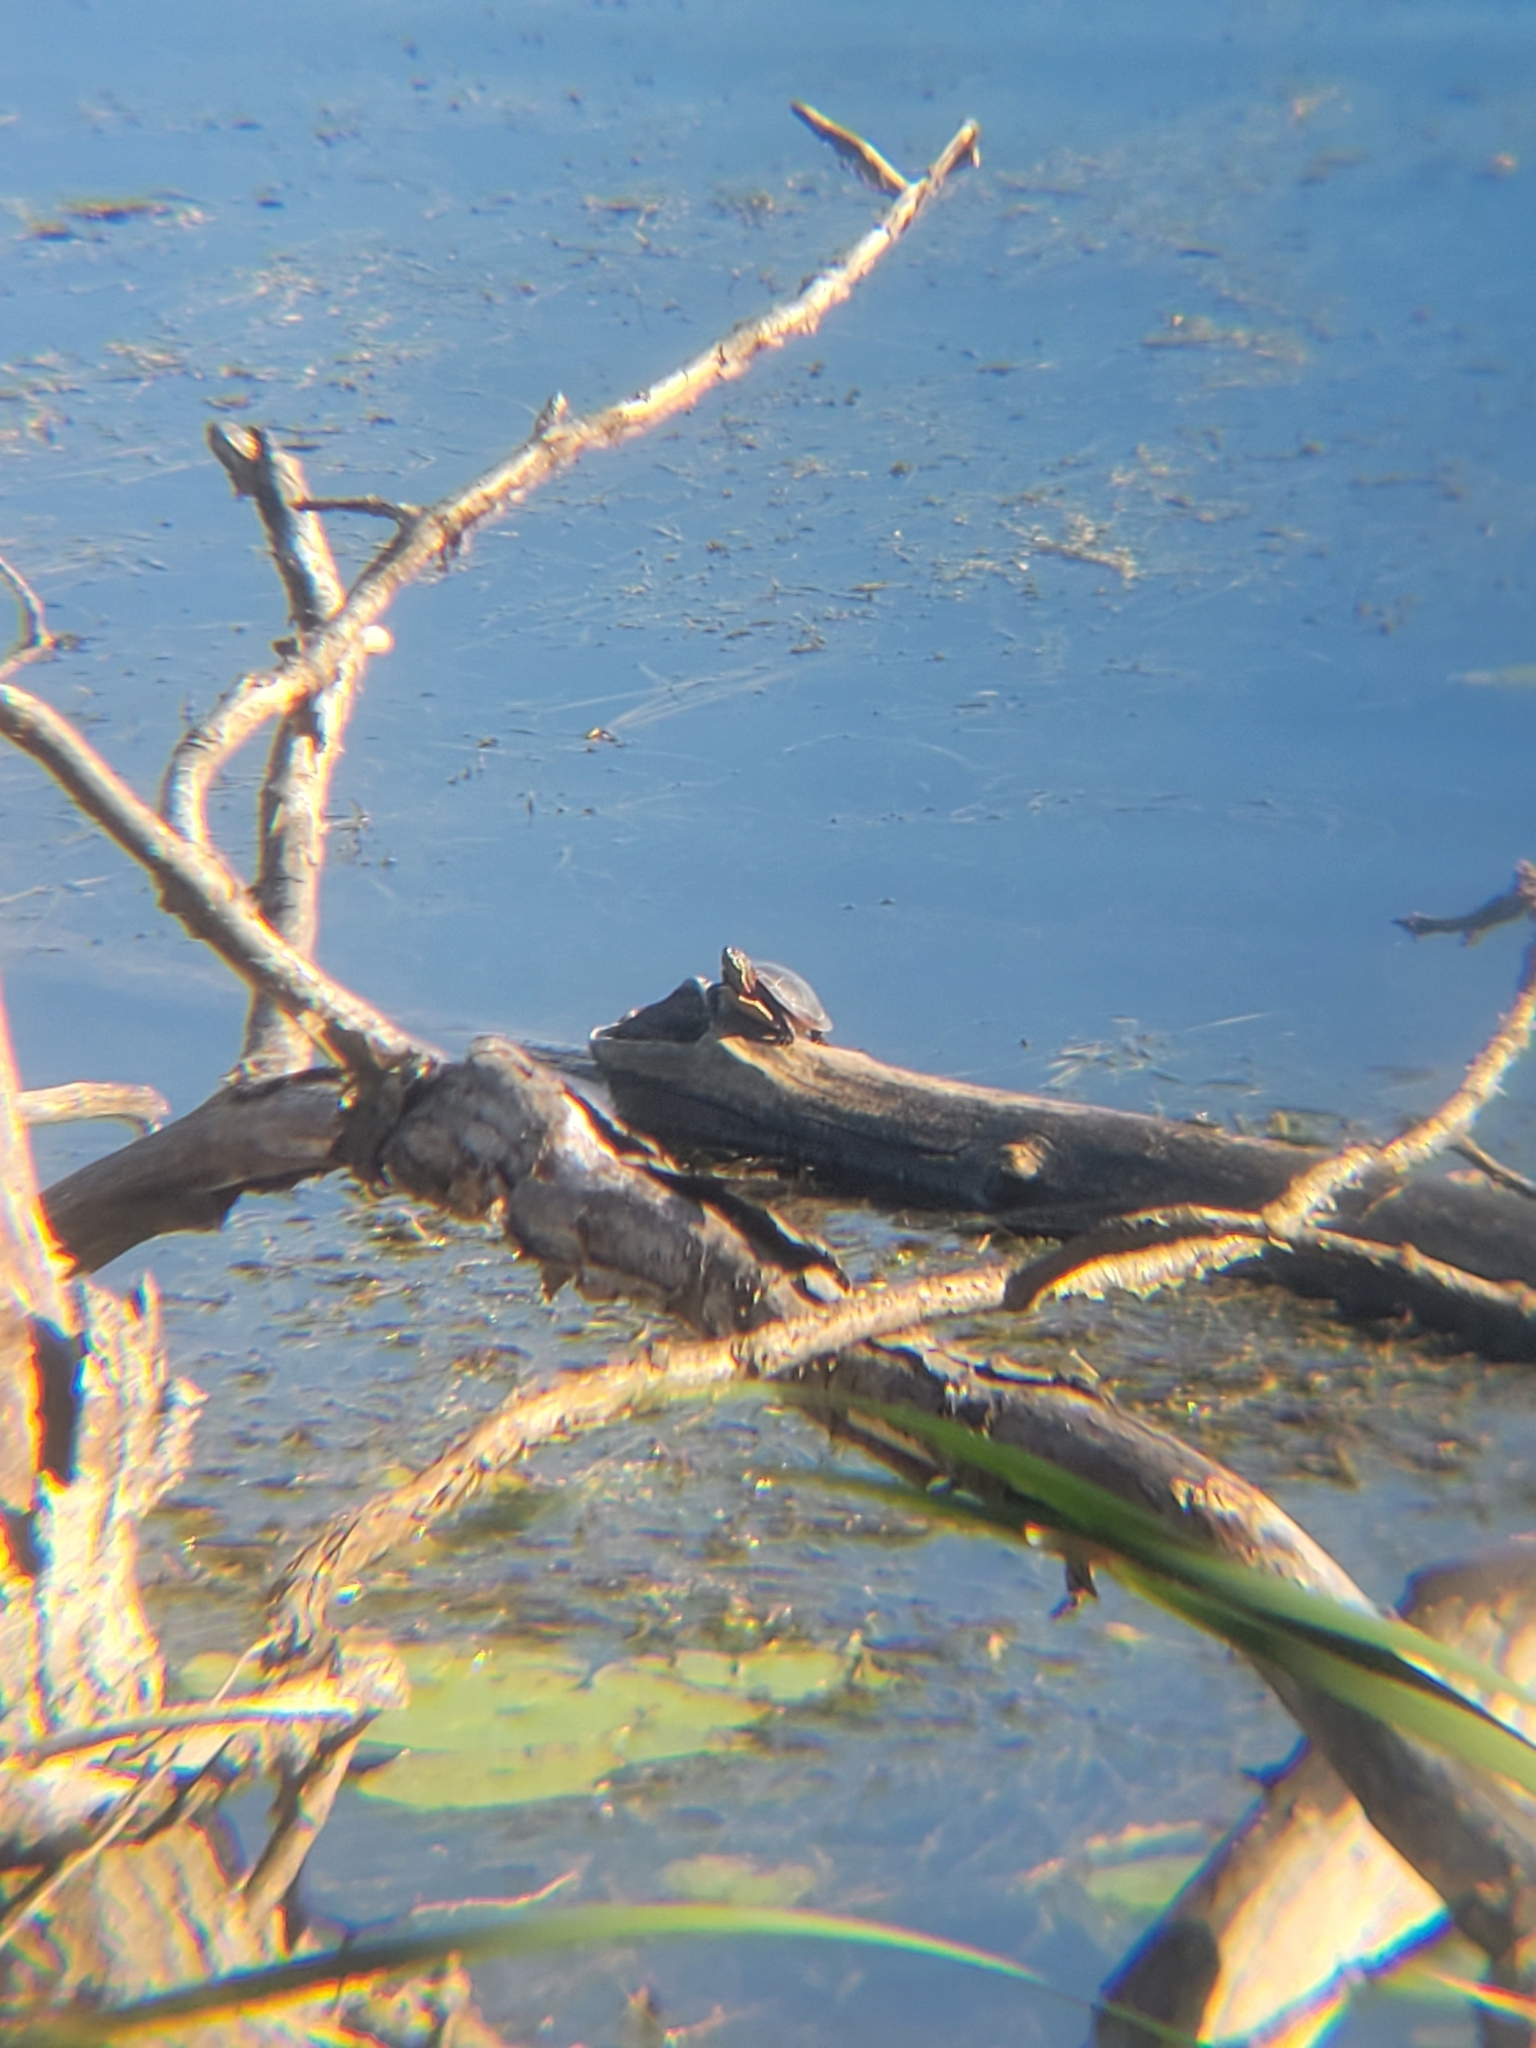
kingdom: Animalia
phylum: Chordata
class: Testudines
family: Emydidae
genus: Chrysemys
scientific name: Chrysemys picta
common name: Painted turtle
